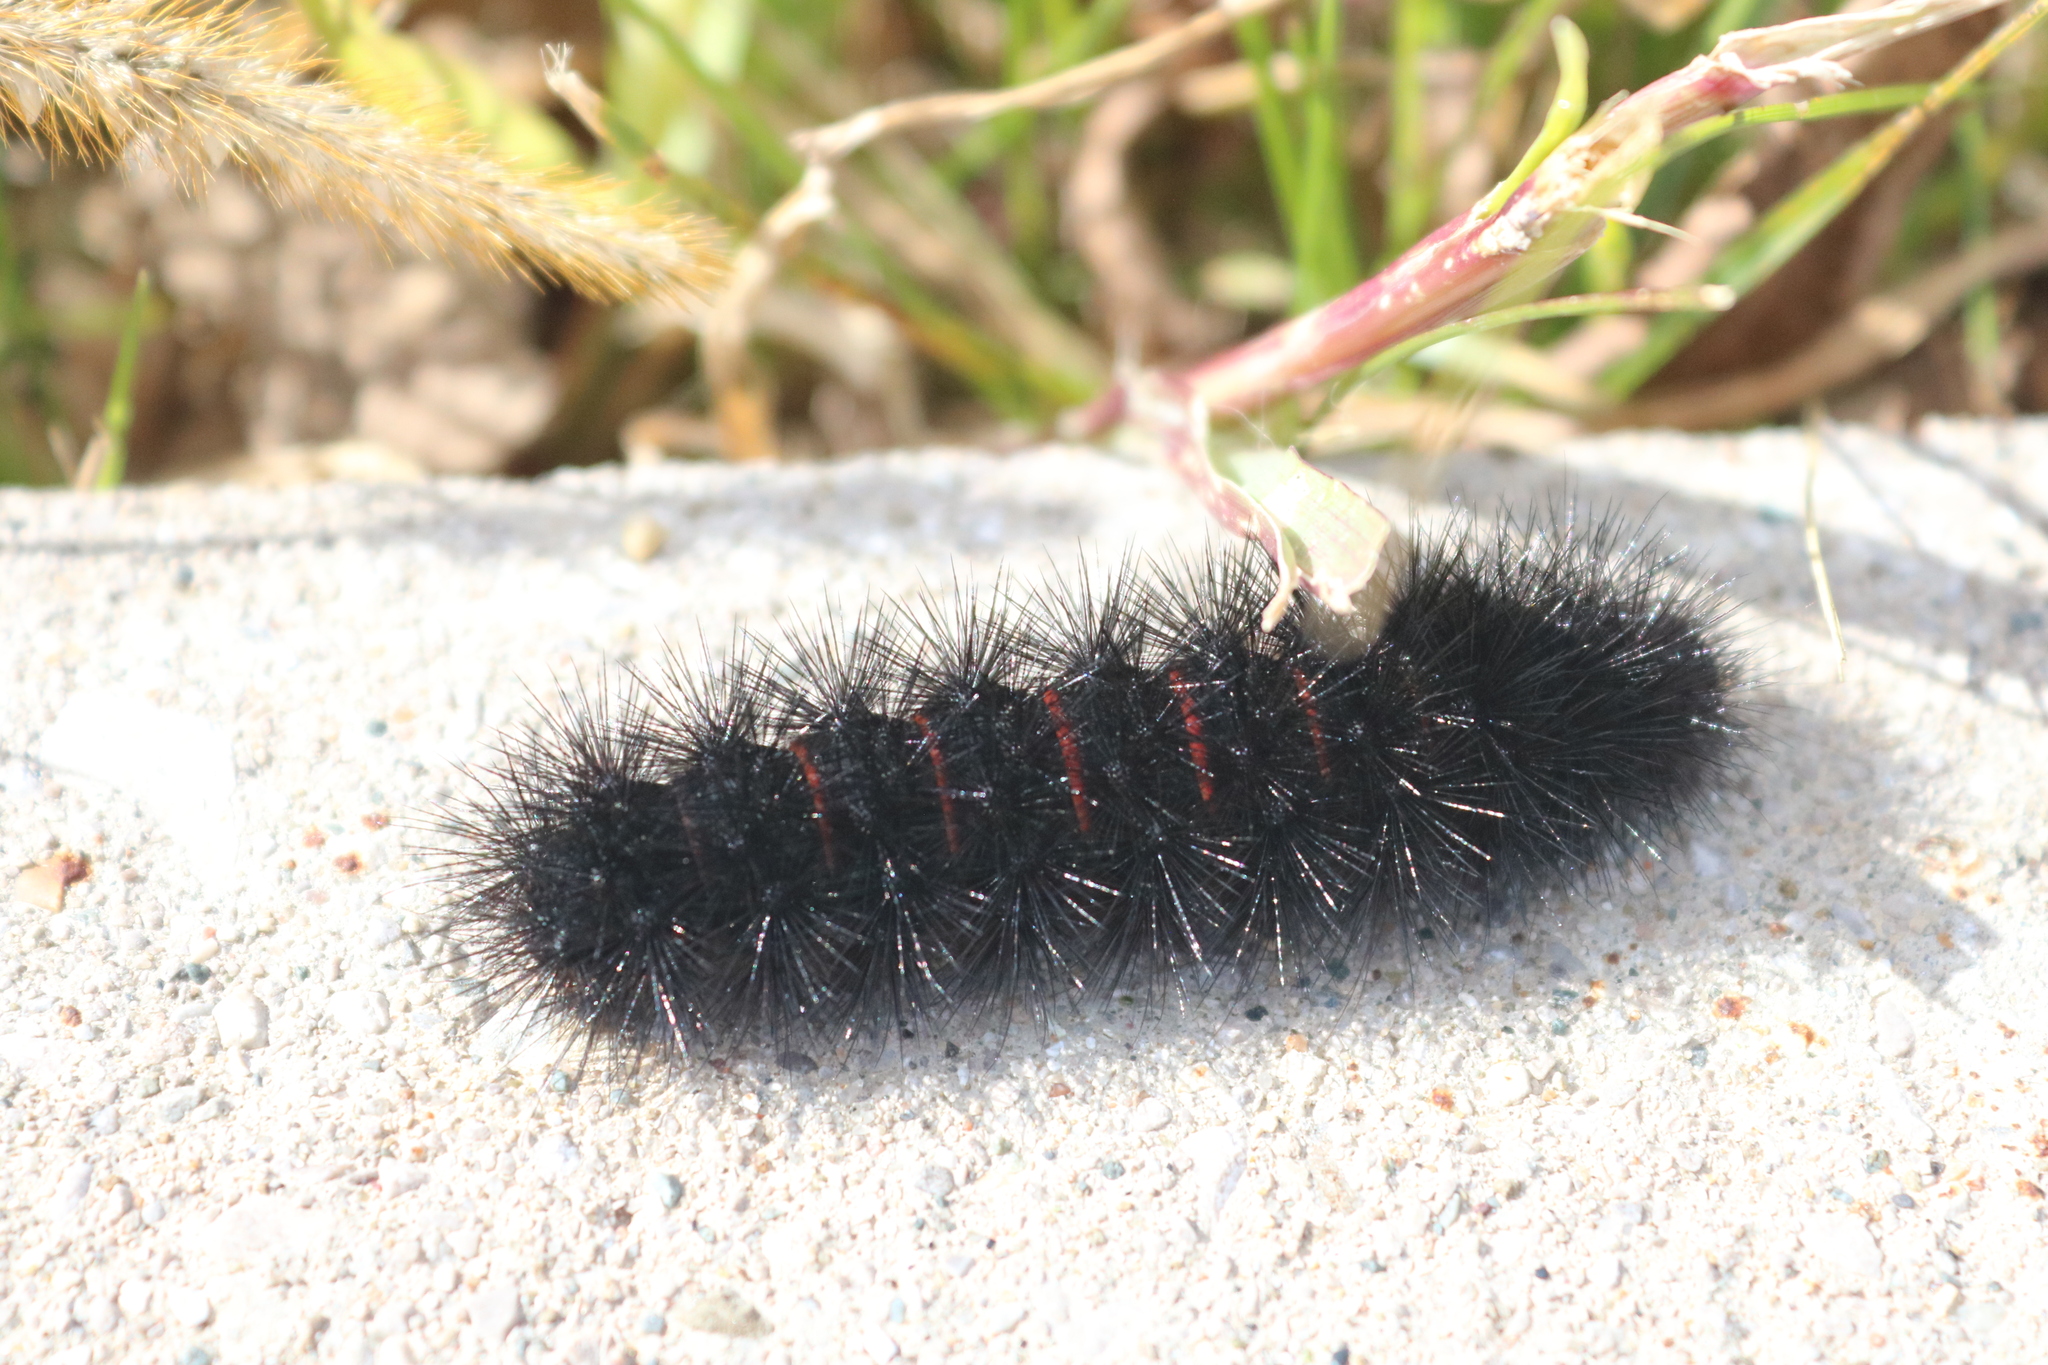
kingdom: Animalia
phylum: Arthropoda
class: Insecta
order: Lepidoptera
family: Erebidae
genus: Hypercompe
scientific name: Hypercompe scribonia
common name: Giant leopard moth
